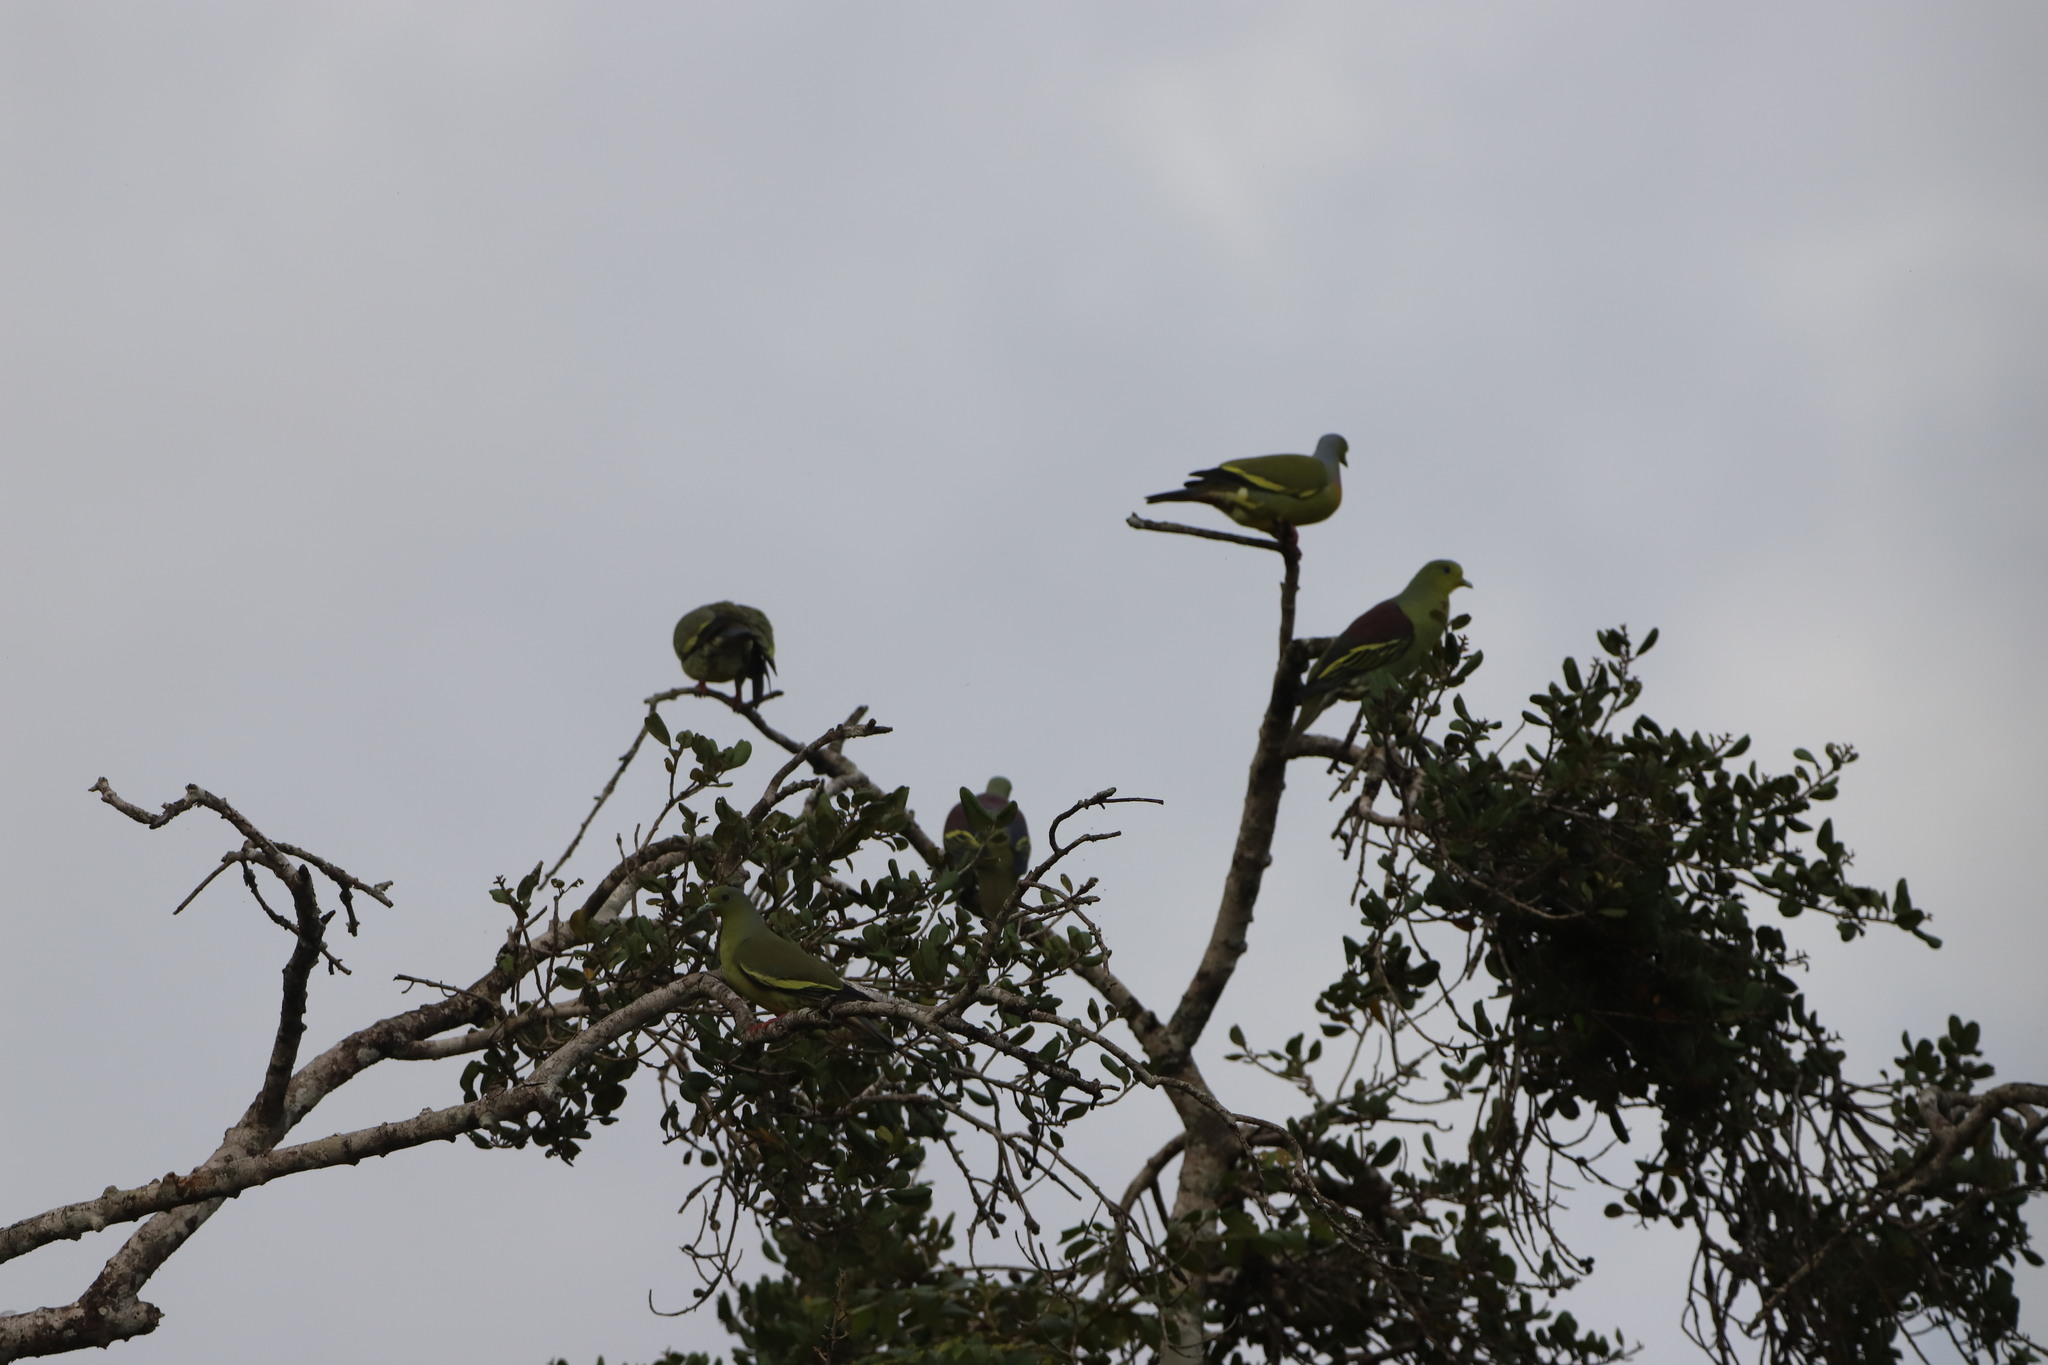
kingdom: Animalia
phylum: Chordata
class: Aves
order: Columbiformes
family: Columbidae
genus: Treron
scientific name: Treron bicinctus
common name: Orange-breasted green pigeon
